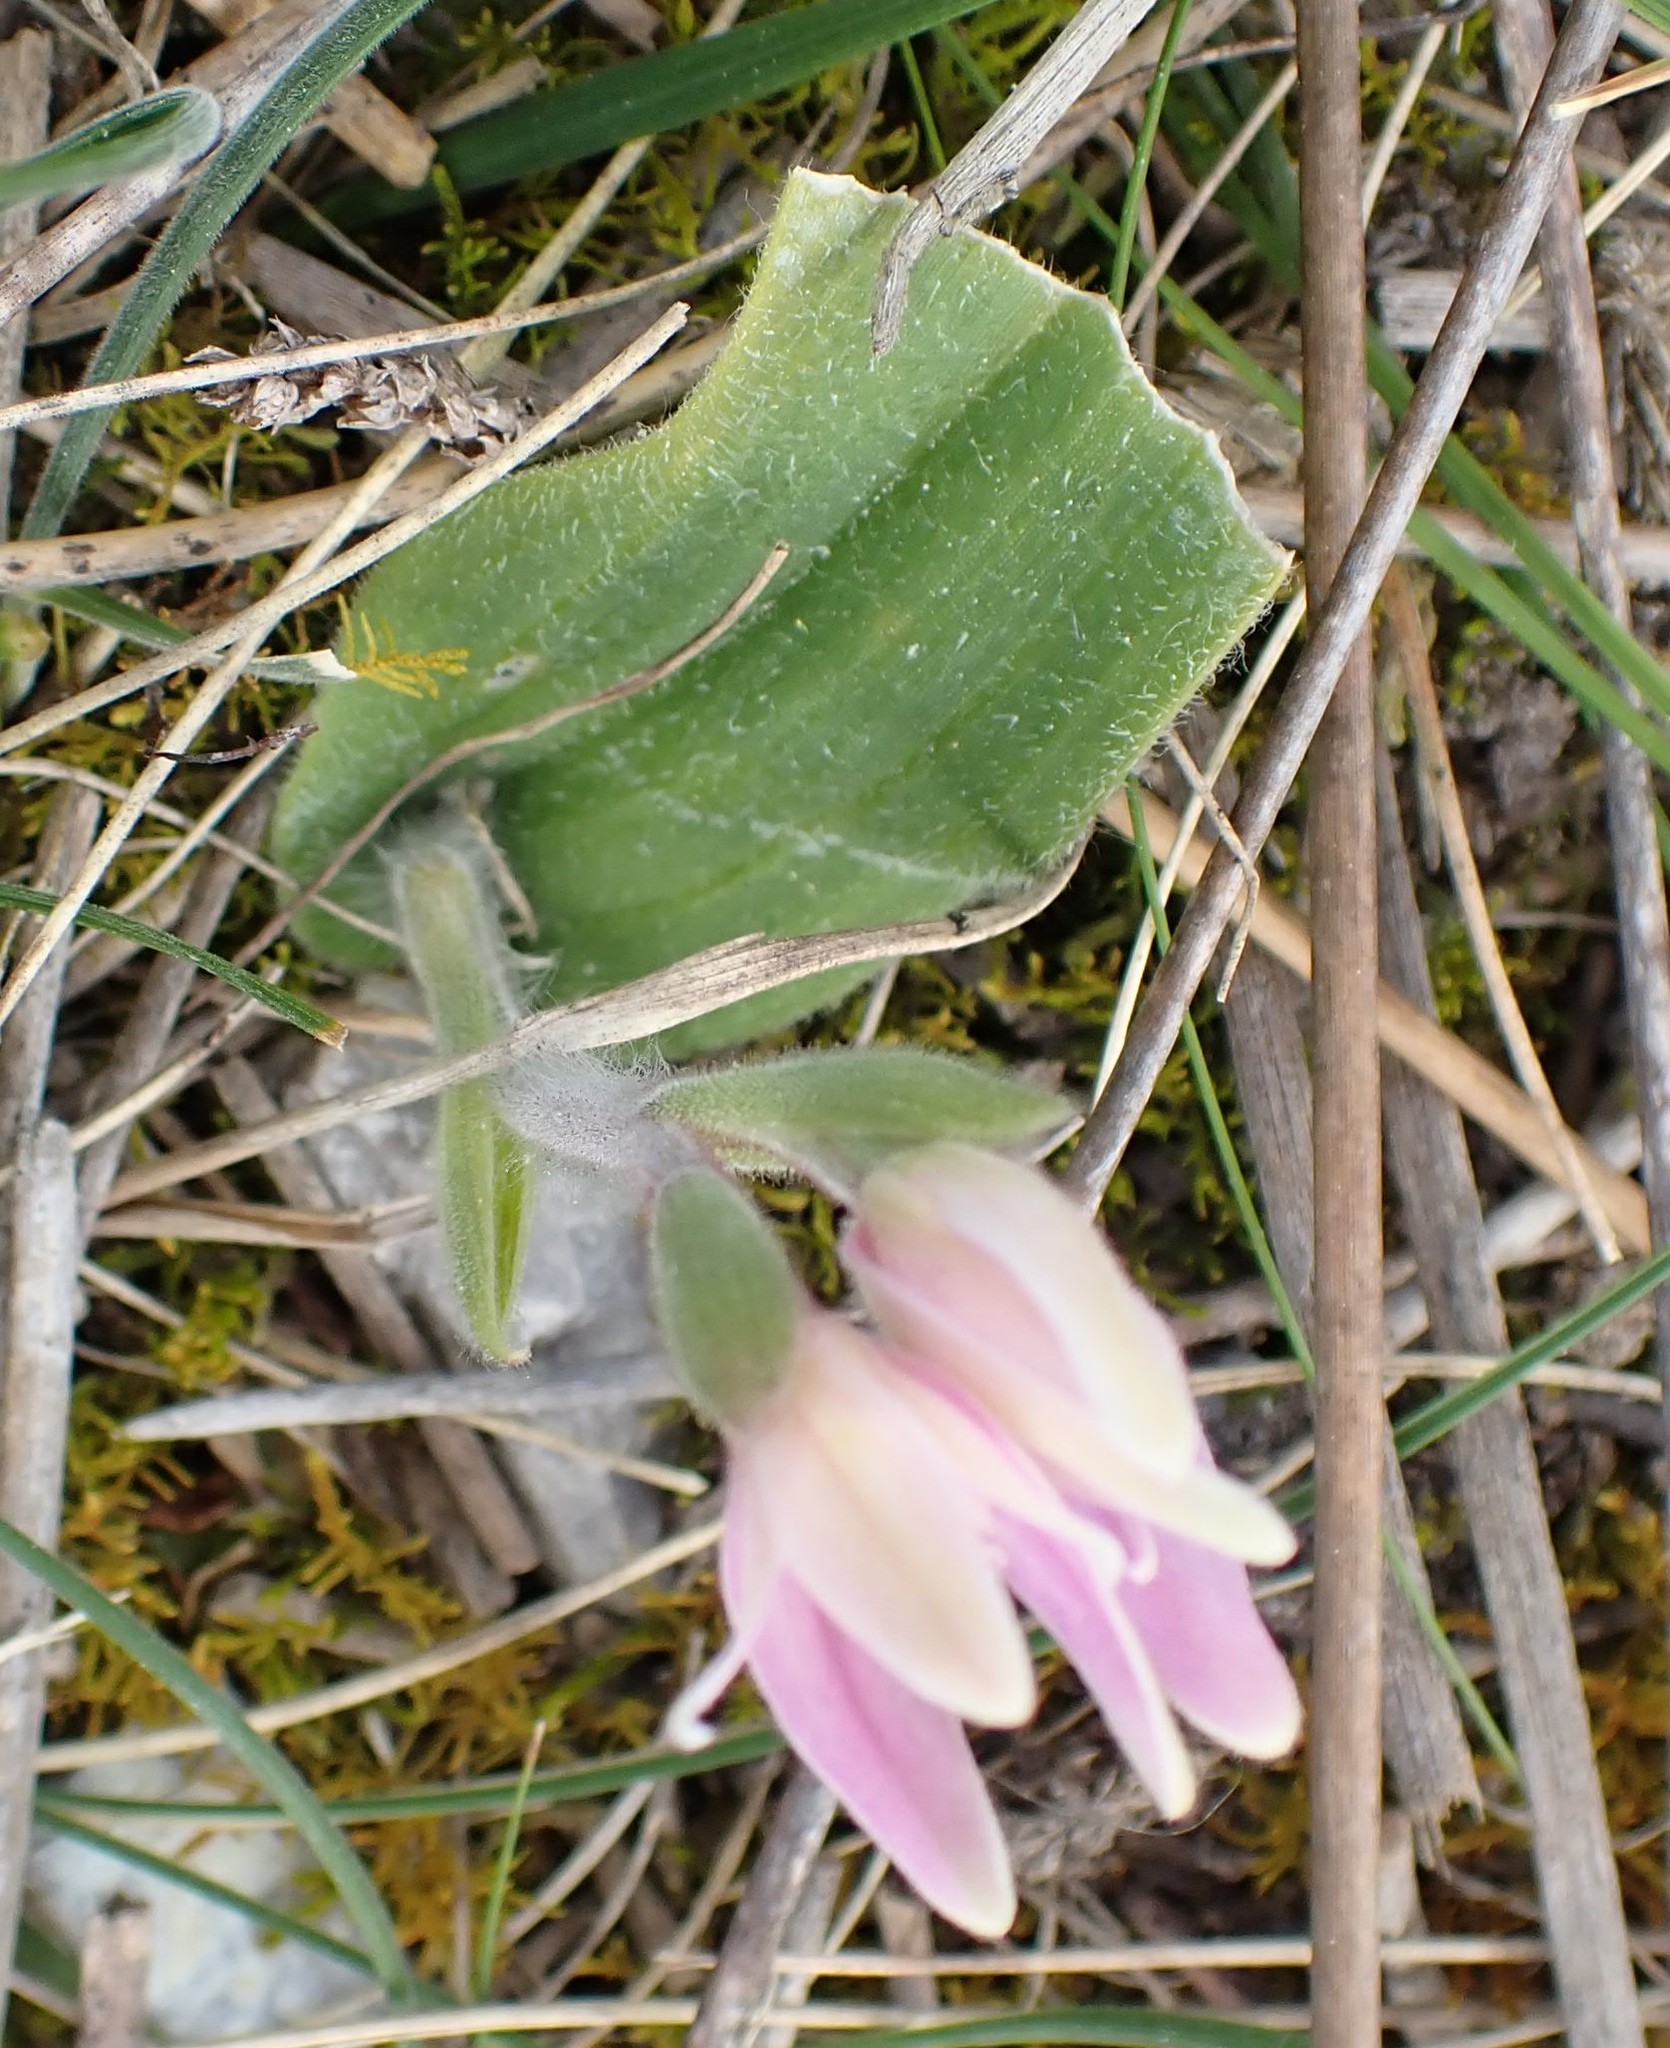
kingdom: Plantae
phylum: Tracheophyta
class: Liliopsida
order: Asparagales
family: Orchidaceae
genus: Caladenia
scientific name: Caladenia latifolia
